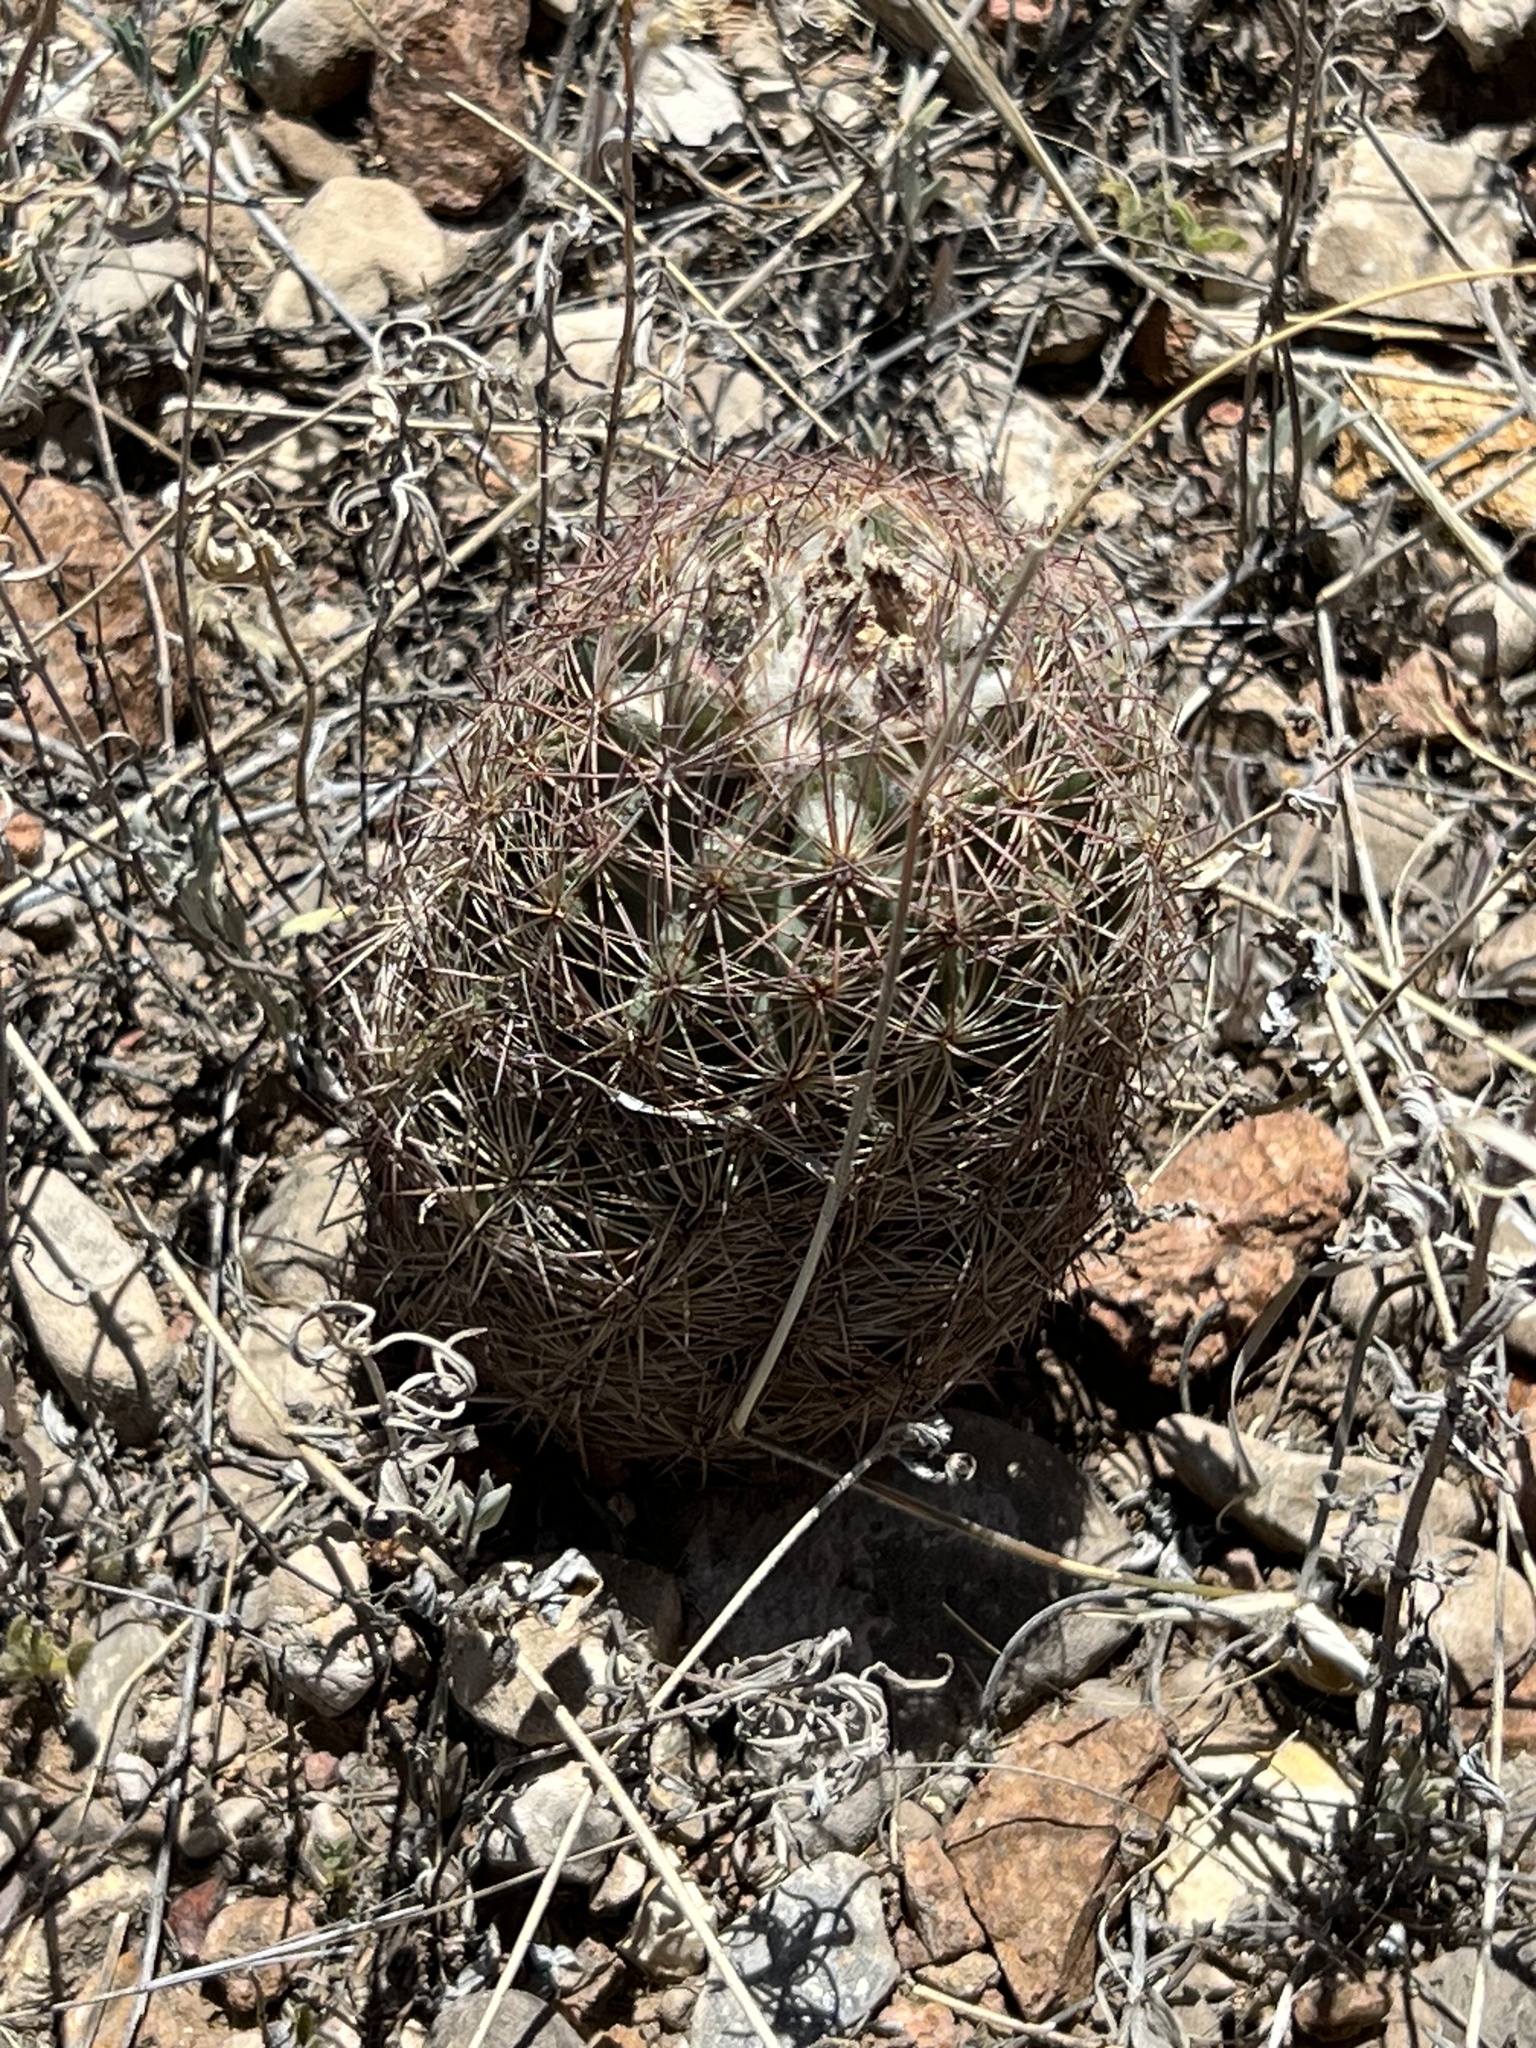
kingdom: Plantae
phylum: Tracheophyta
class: Magnoliopsida
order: Caryophyllales
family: Cactaceae
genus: Sclerocactus
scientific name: Sclerocactus intertextus
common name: White fish-hook cactus
